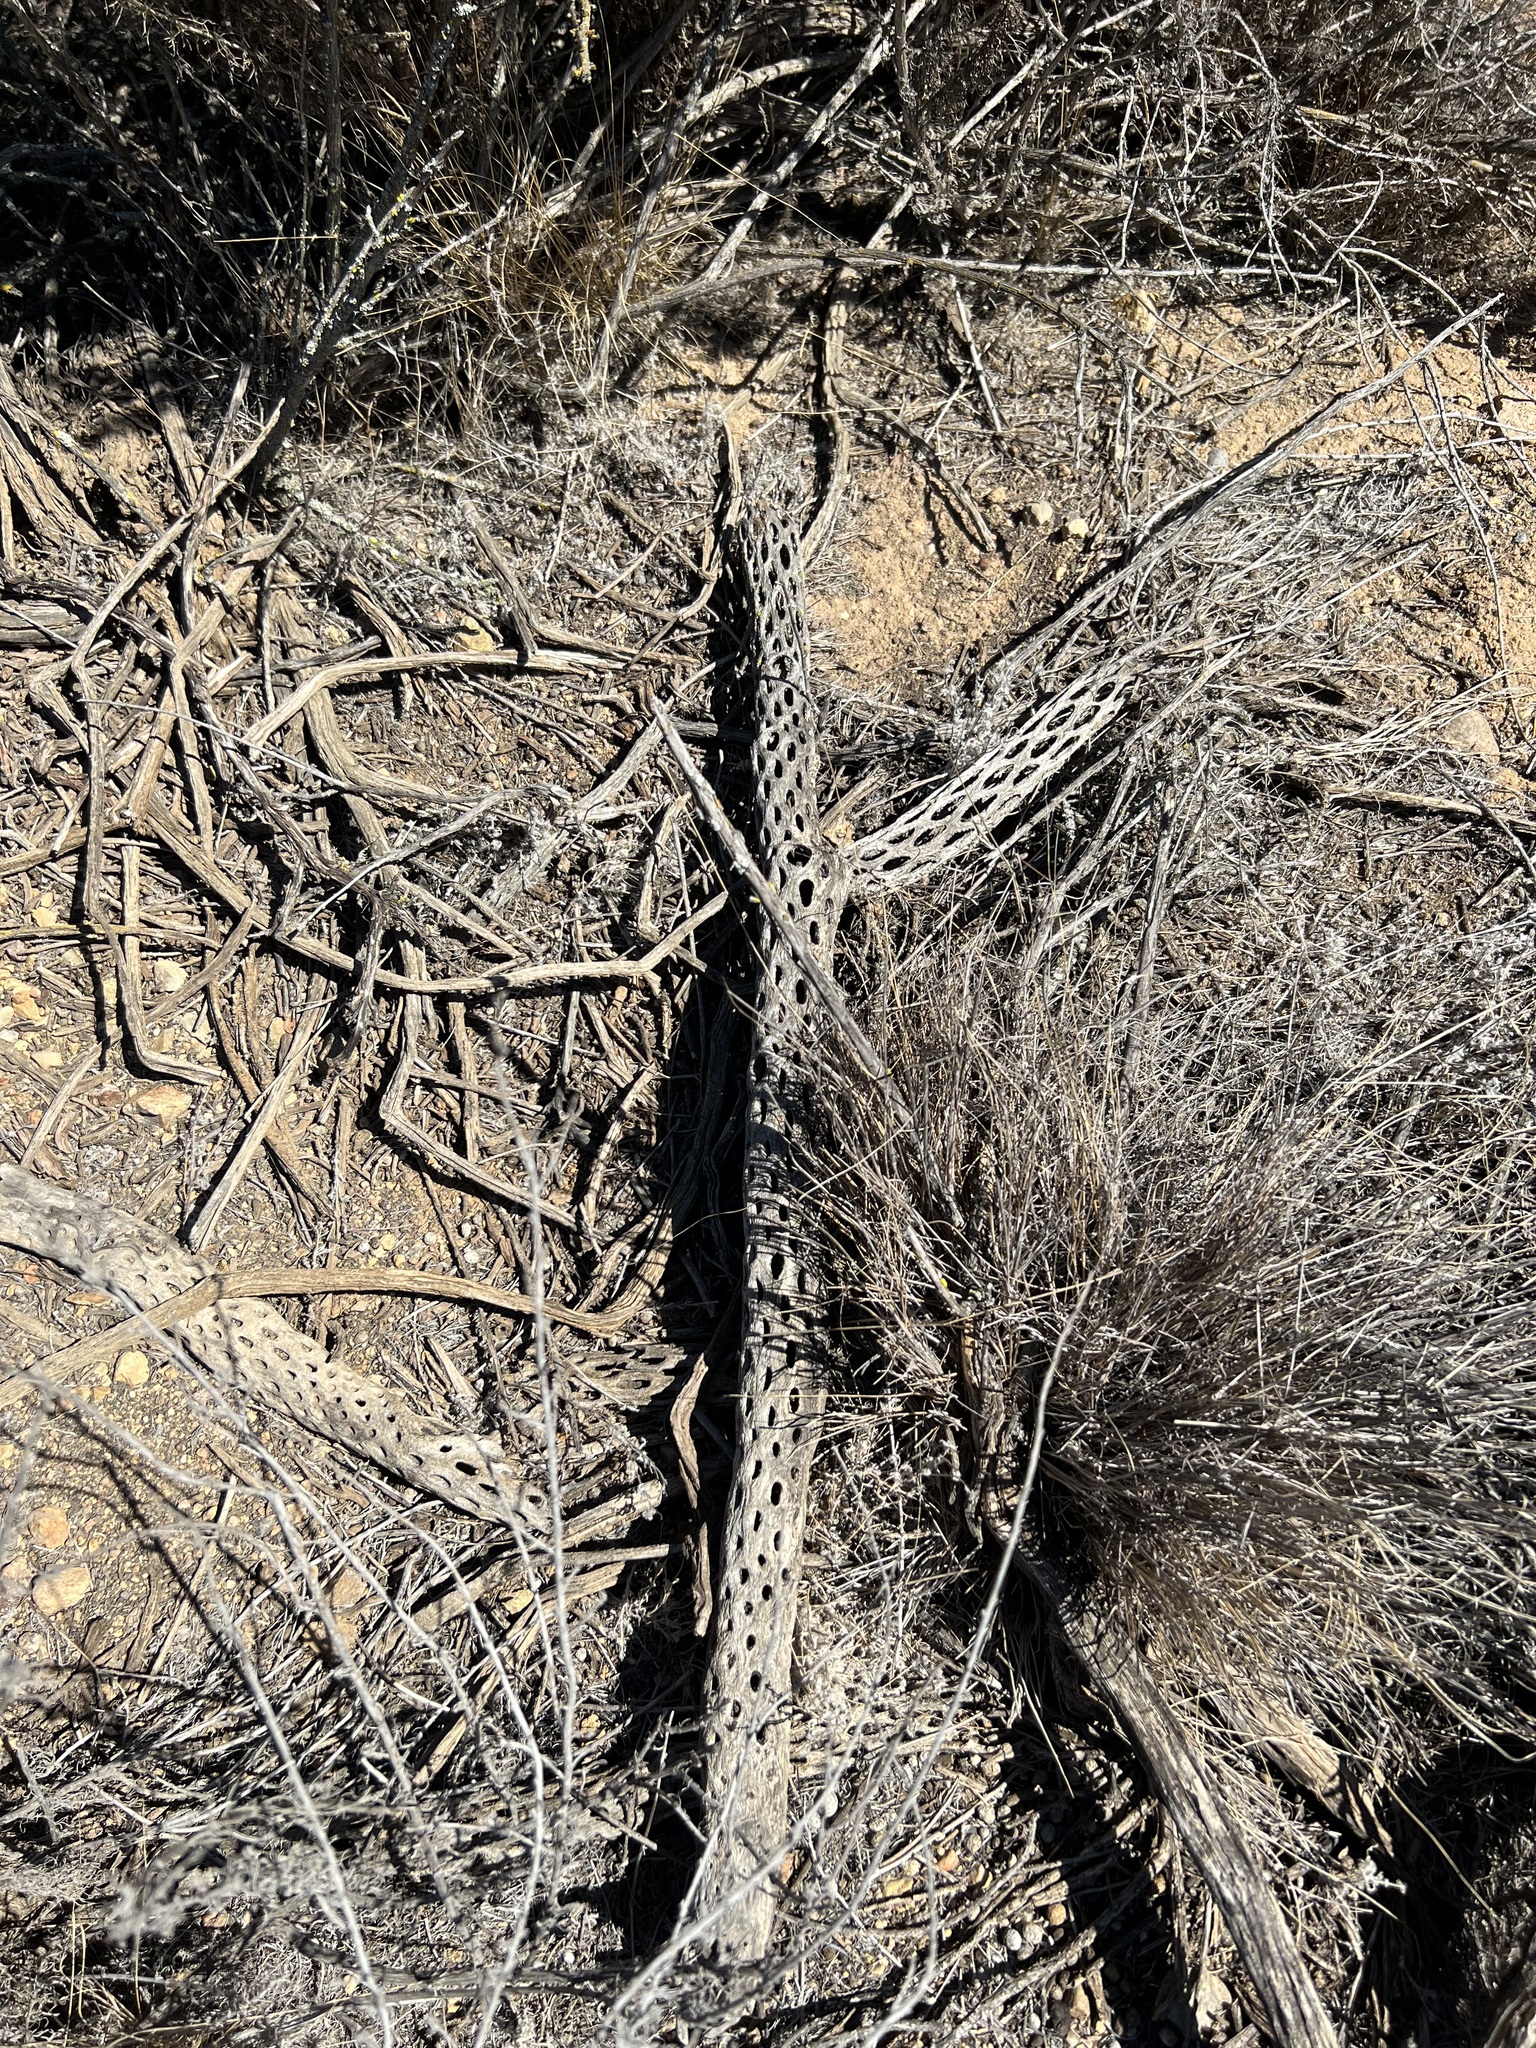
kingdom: Plantae
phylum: Tracheophyta
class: Magnoliopsida
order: Caryophyllales
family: Cactaceae
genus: Cylindropuntia
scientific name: Cylindropuntia prolifera
